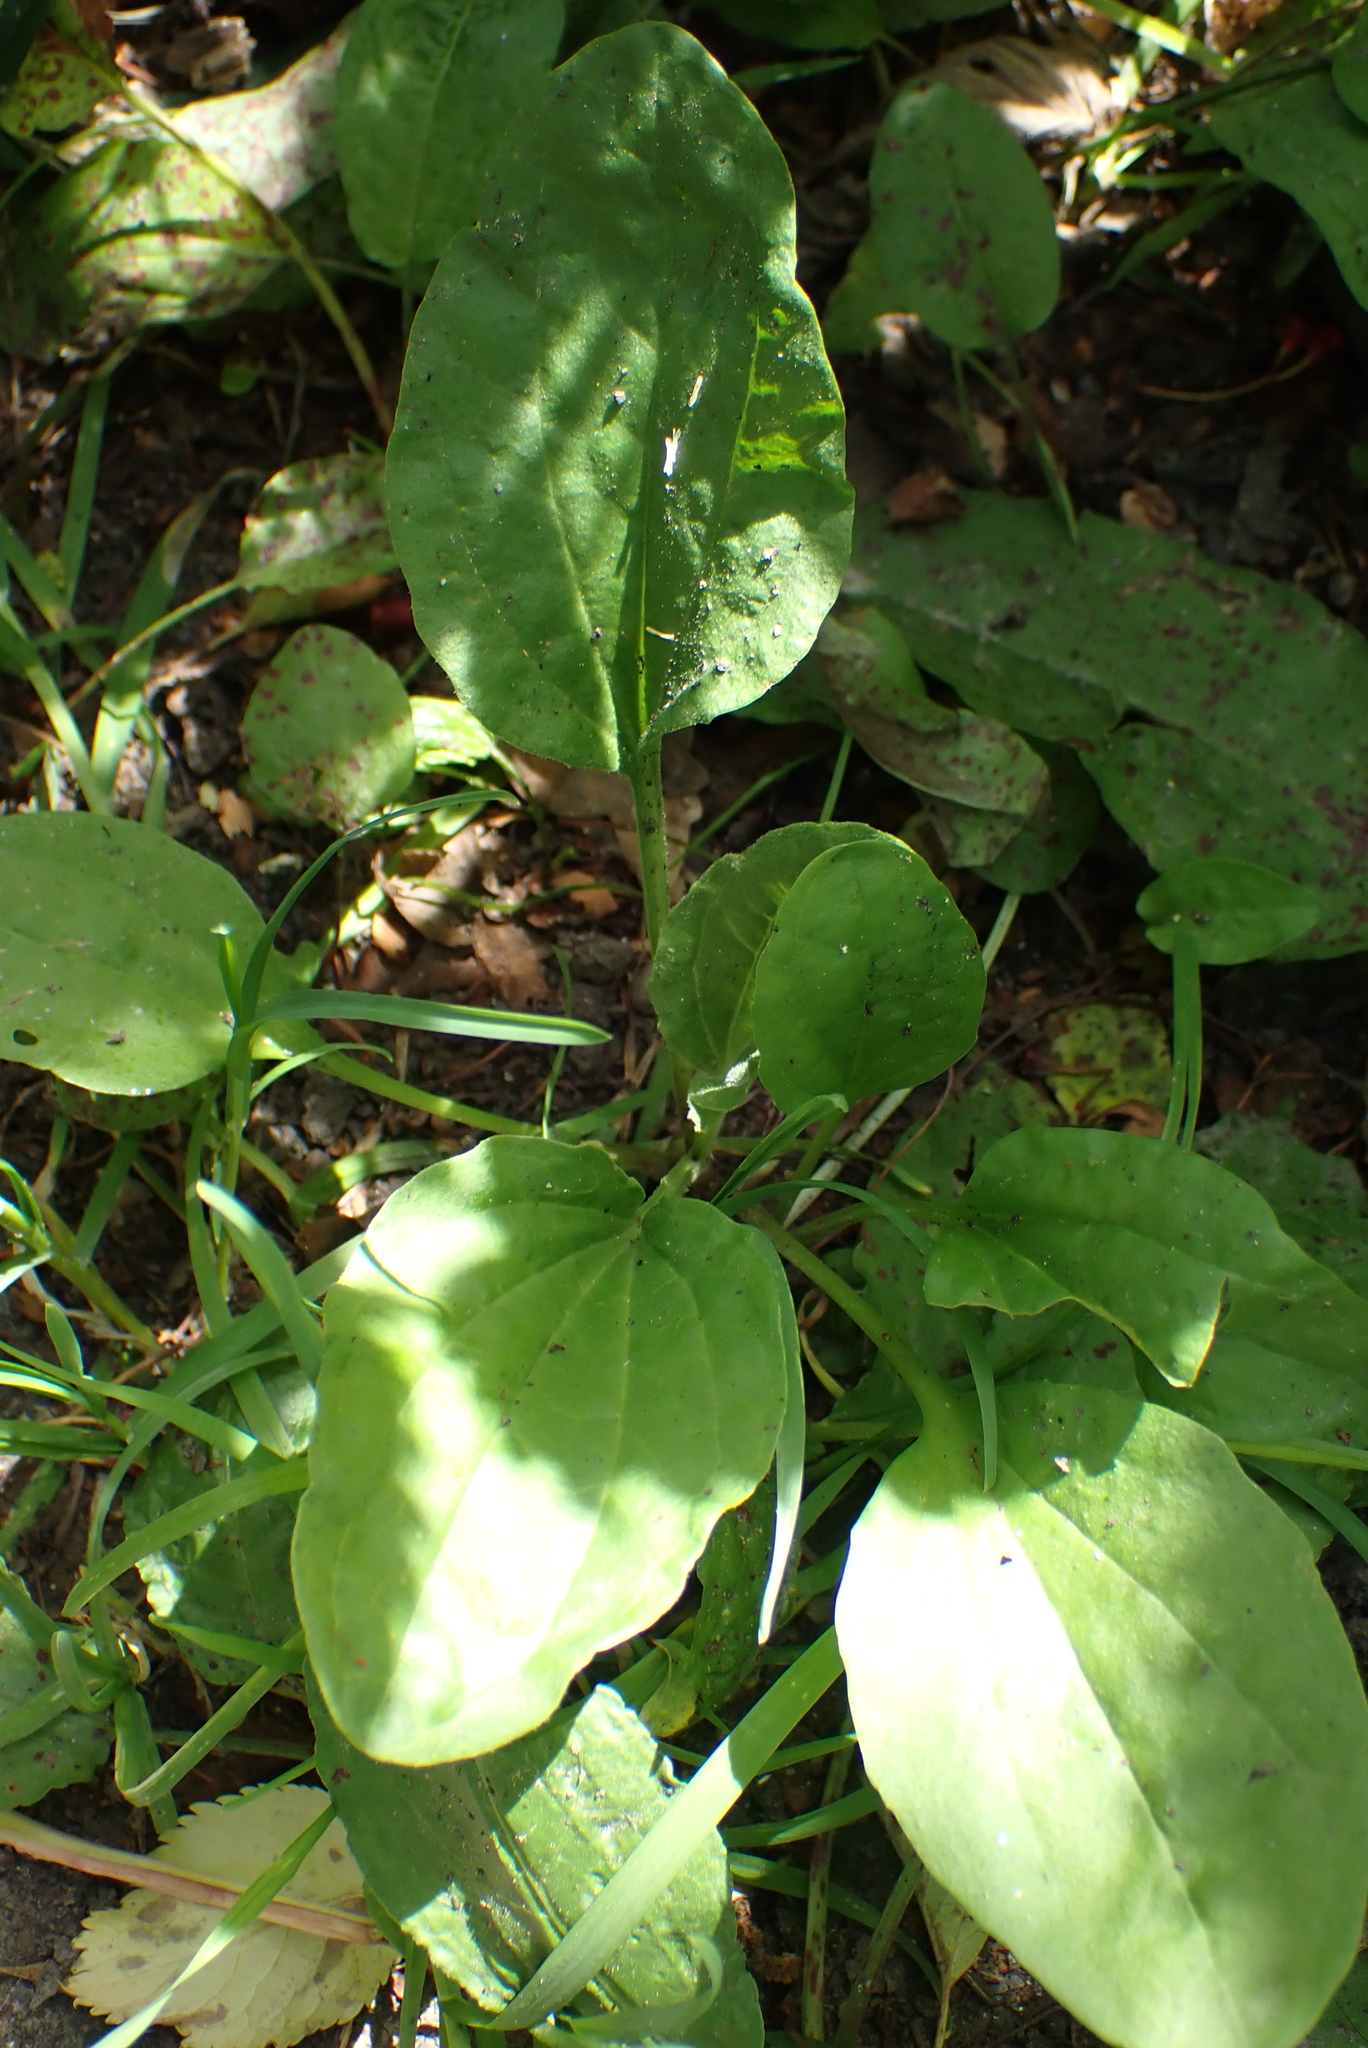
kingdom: Plantae
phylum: Tracheophyta
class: Magnoliopsida
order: Lamiales
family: Plantaginaceae
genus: Plantago
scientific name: Plantago major
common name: Common plantain
